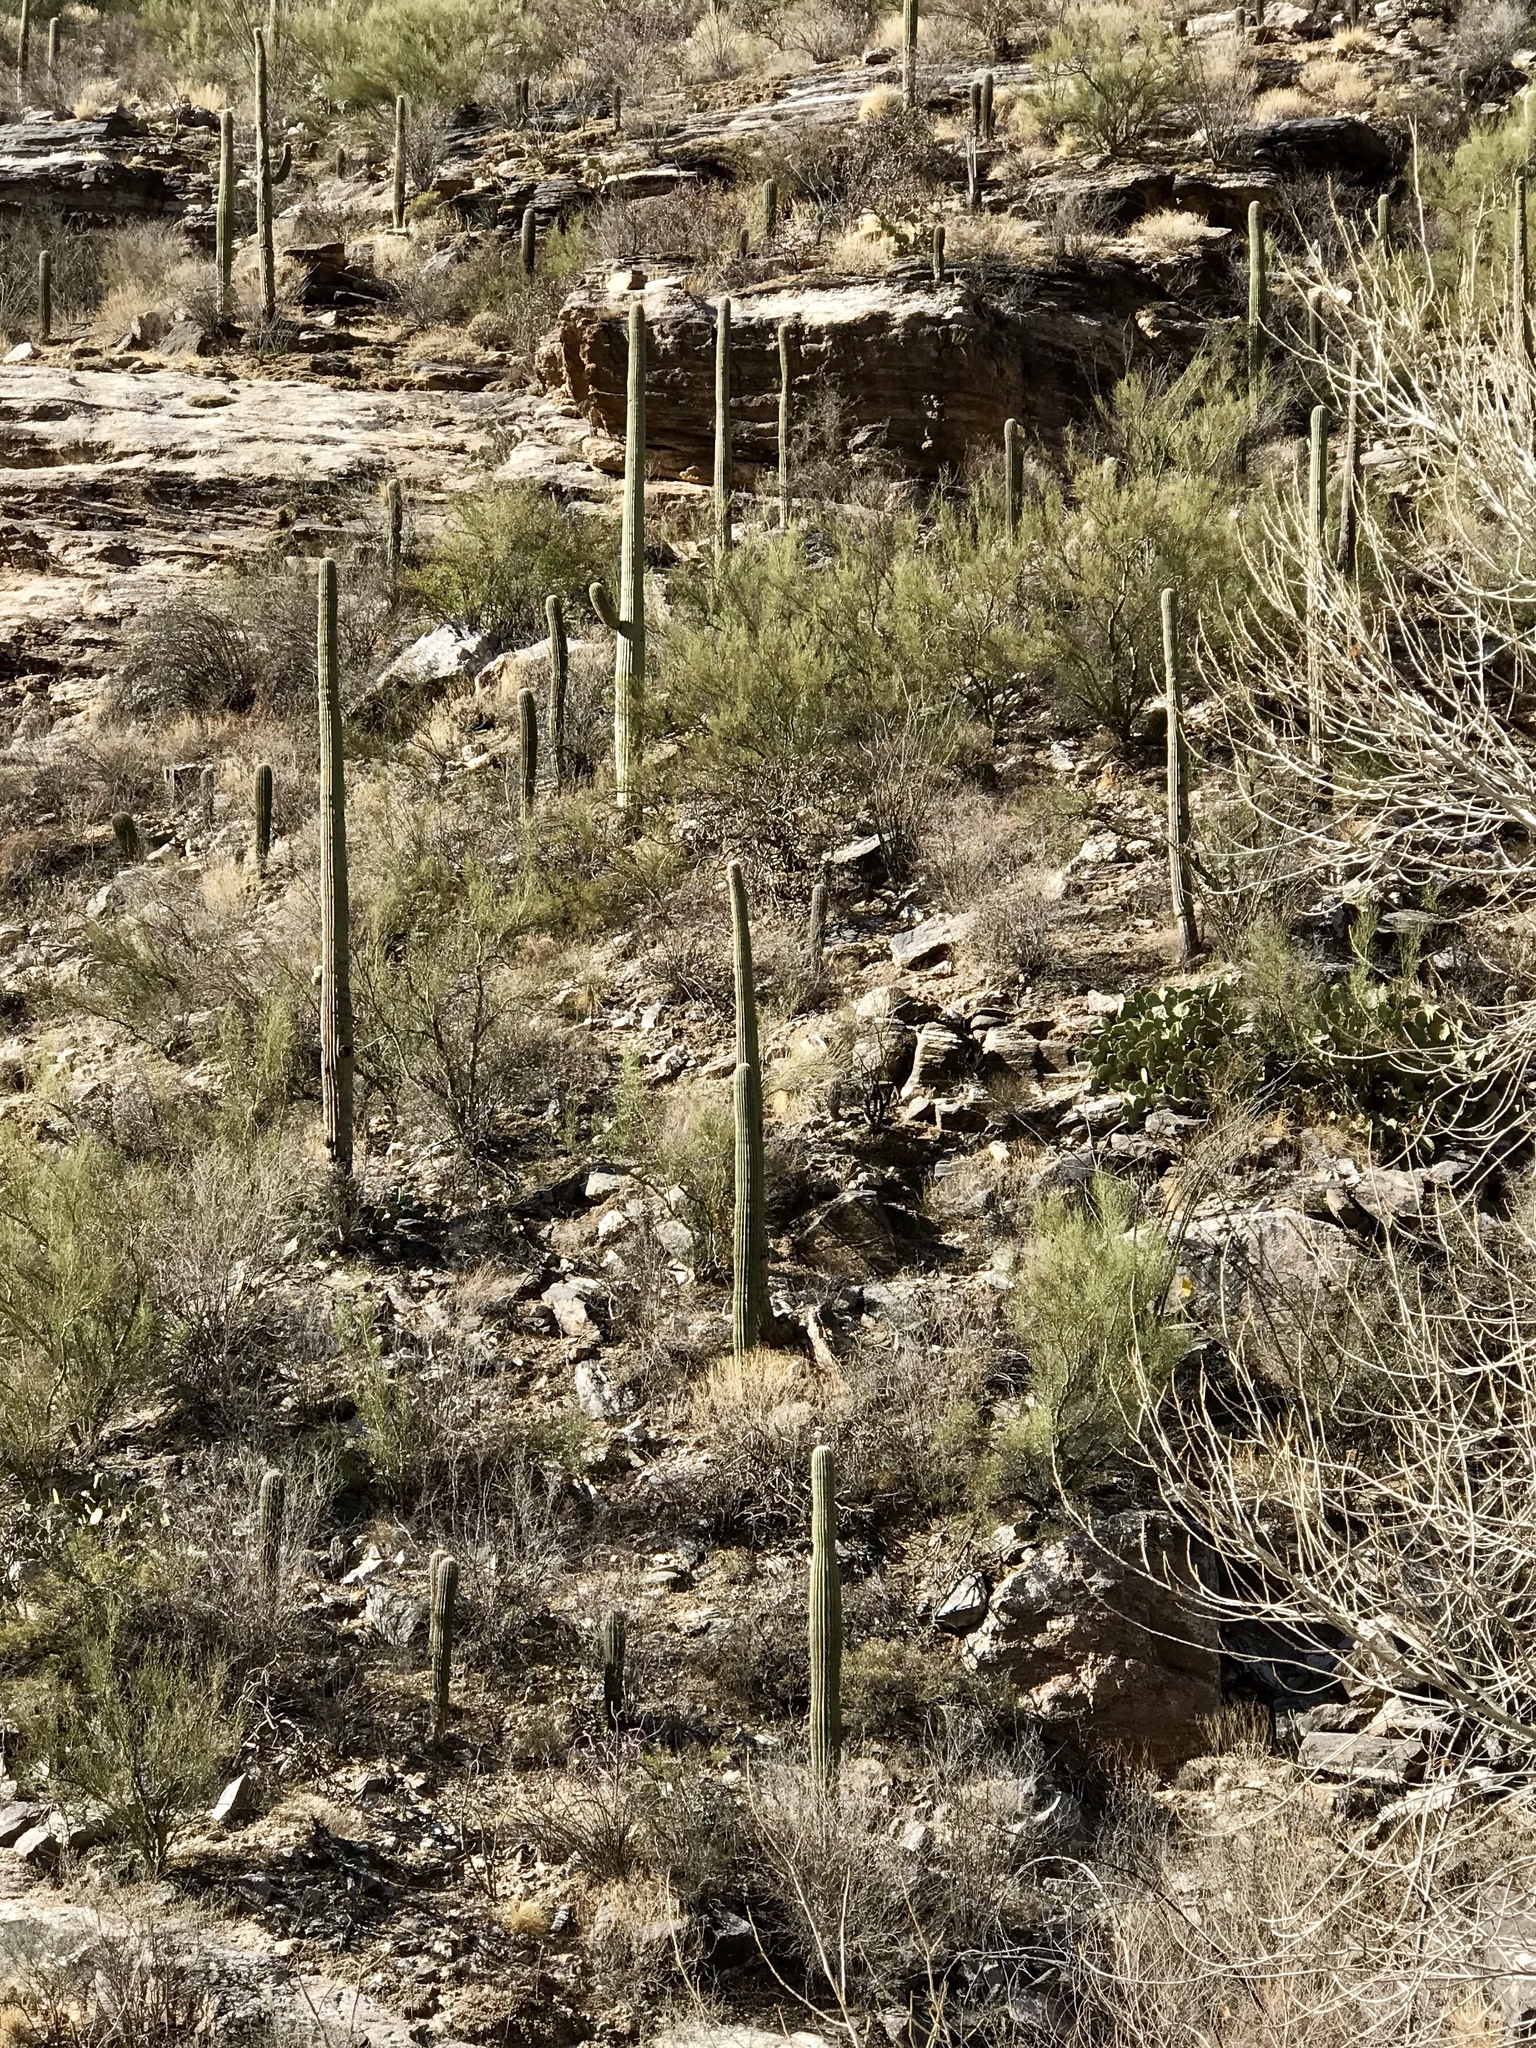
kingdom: Plantae
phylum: Tracheophyta
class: Magnoliopsida
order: Caryophyllales
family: Cactaceae
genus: Carnegiea
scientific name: Carnegiea gigantea
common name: Saguaro
